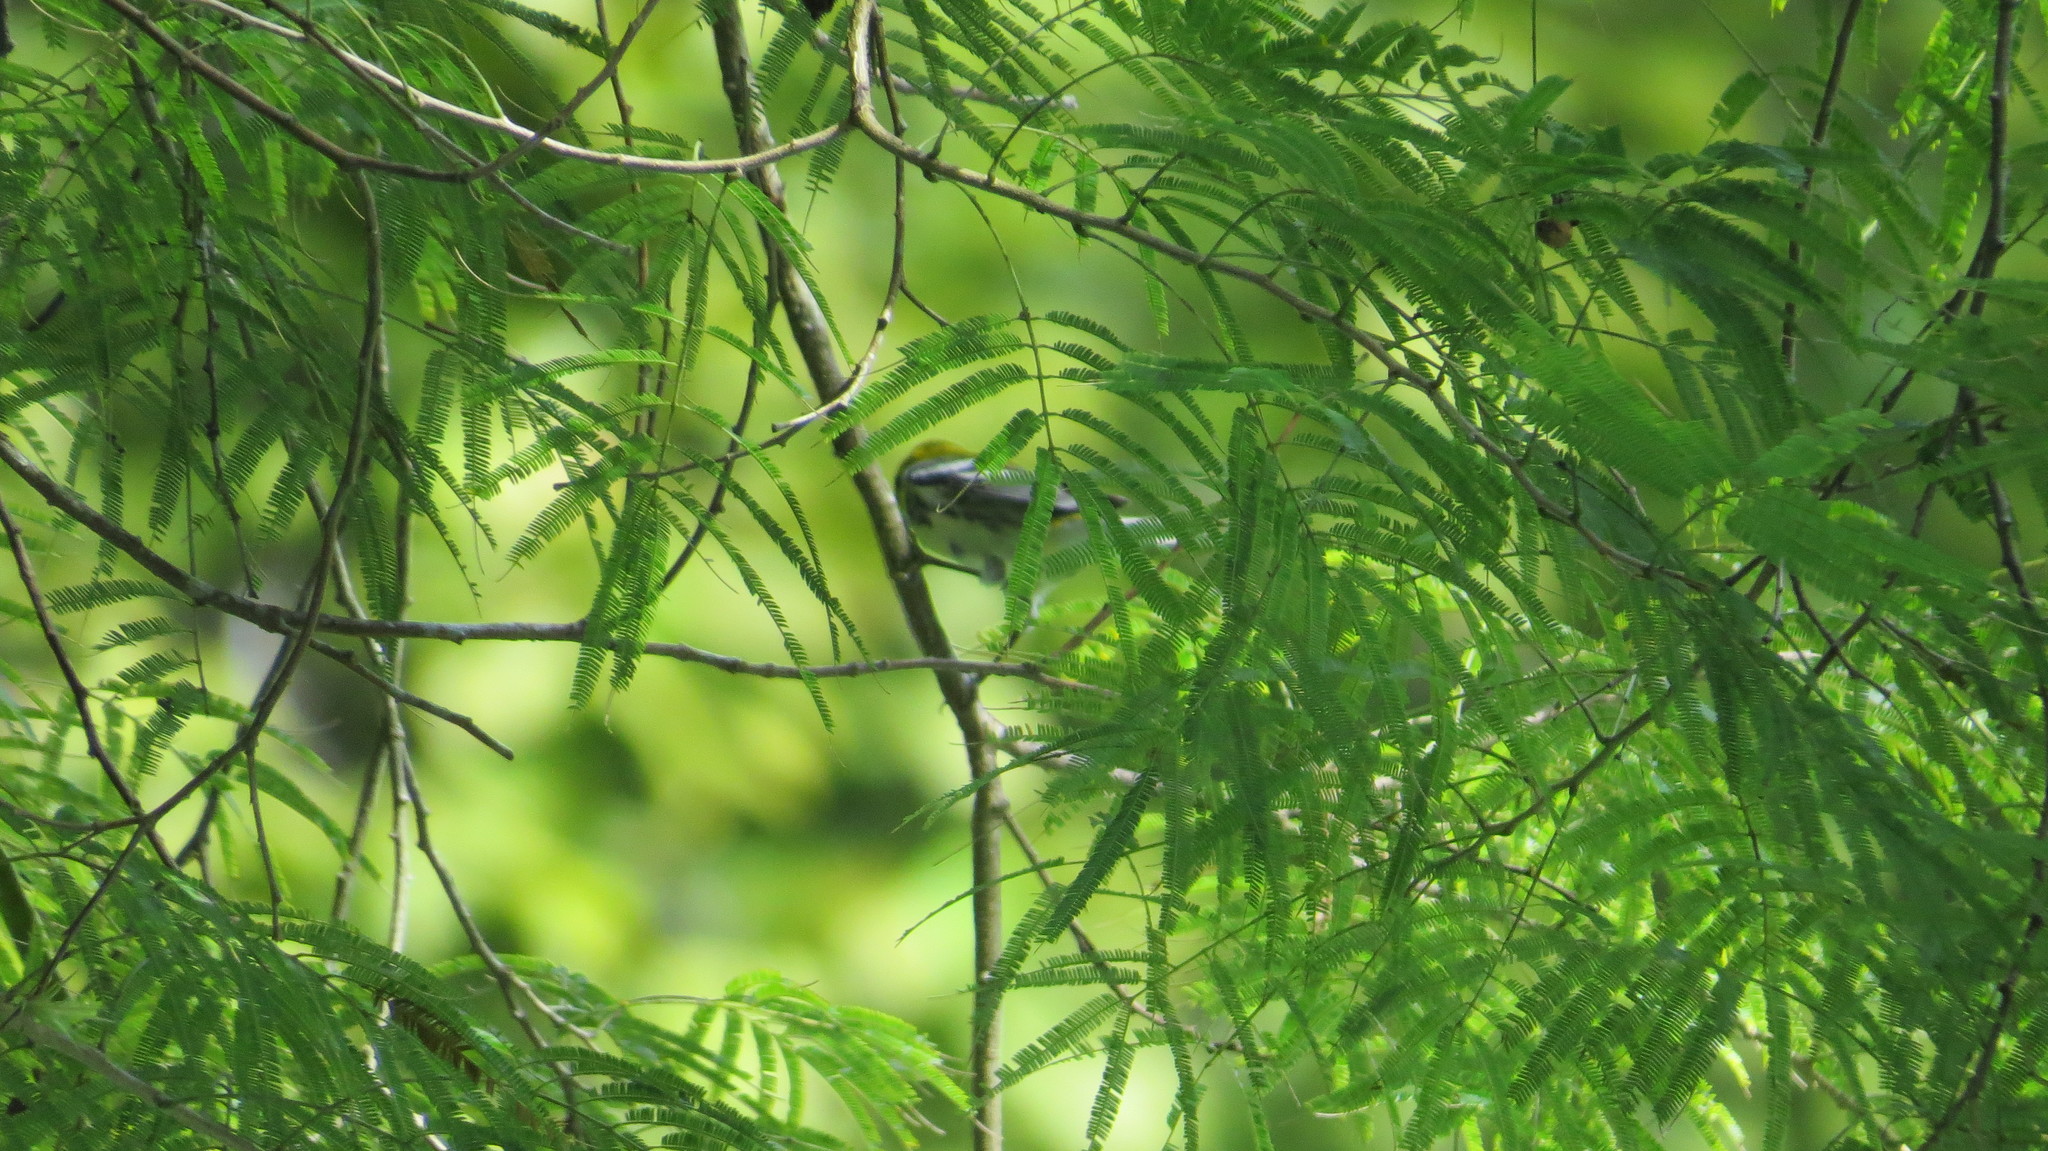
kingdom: Animalia
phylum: Chordata
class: Aves
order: Passeriformes
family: Parulidae
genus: Setophaga
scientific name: Setophaga virens
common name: Black-throated green warbler
